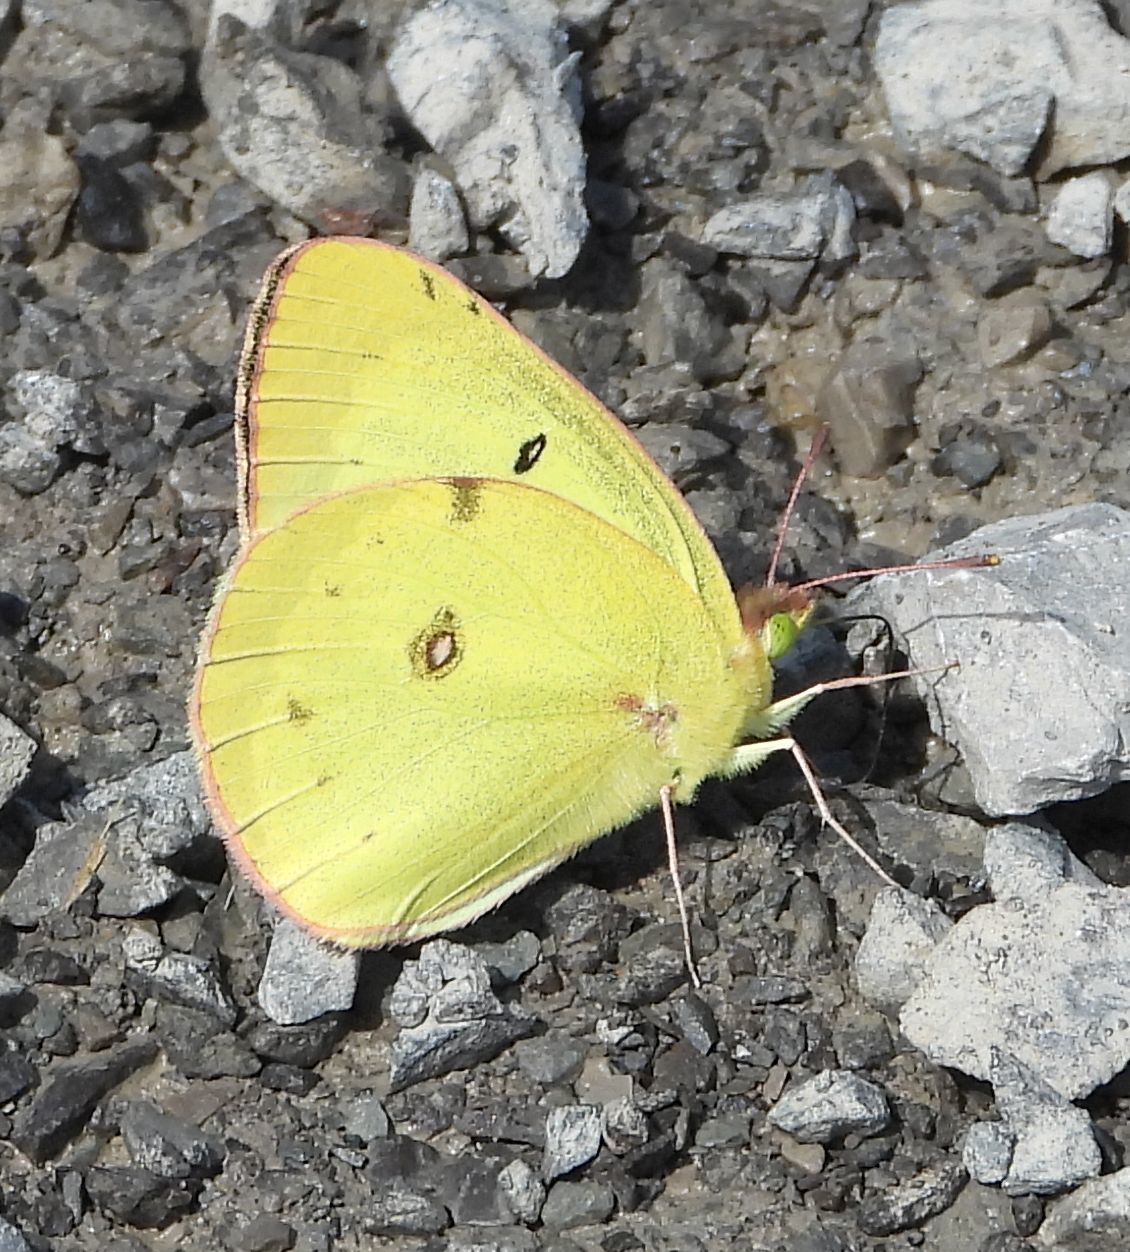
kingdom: Animalia
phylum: Arthropoda
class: Insecta
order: Lepidoptera
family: Pieridae
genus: Colias
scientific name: Colias philodice
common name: Clouded sulphur
